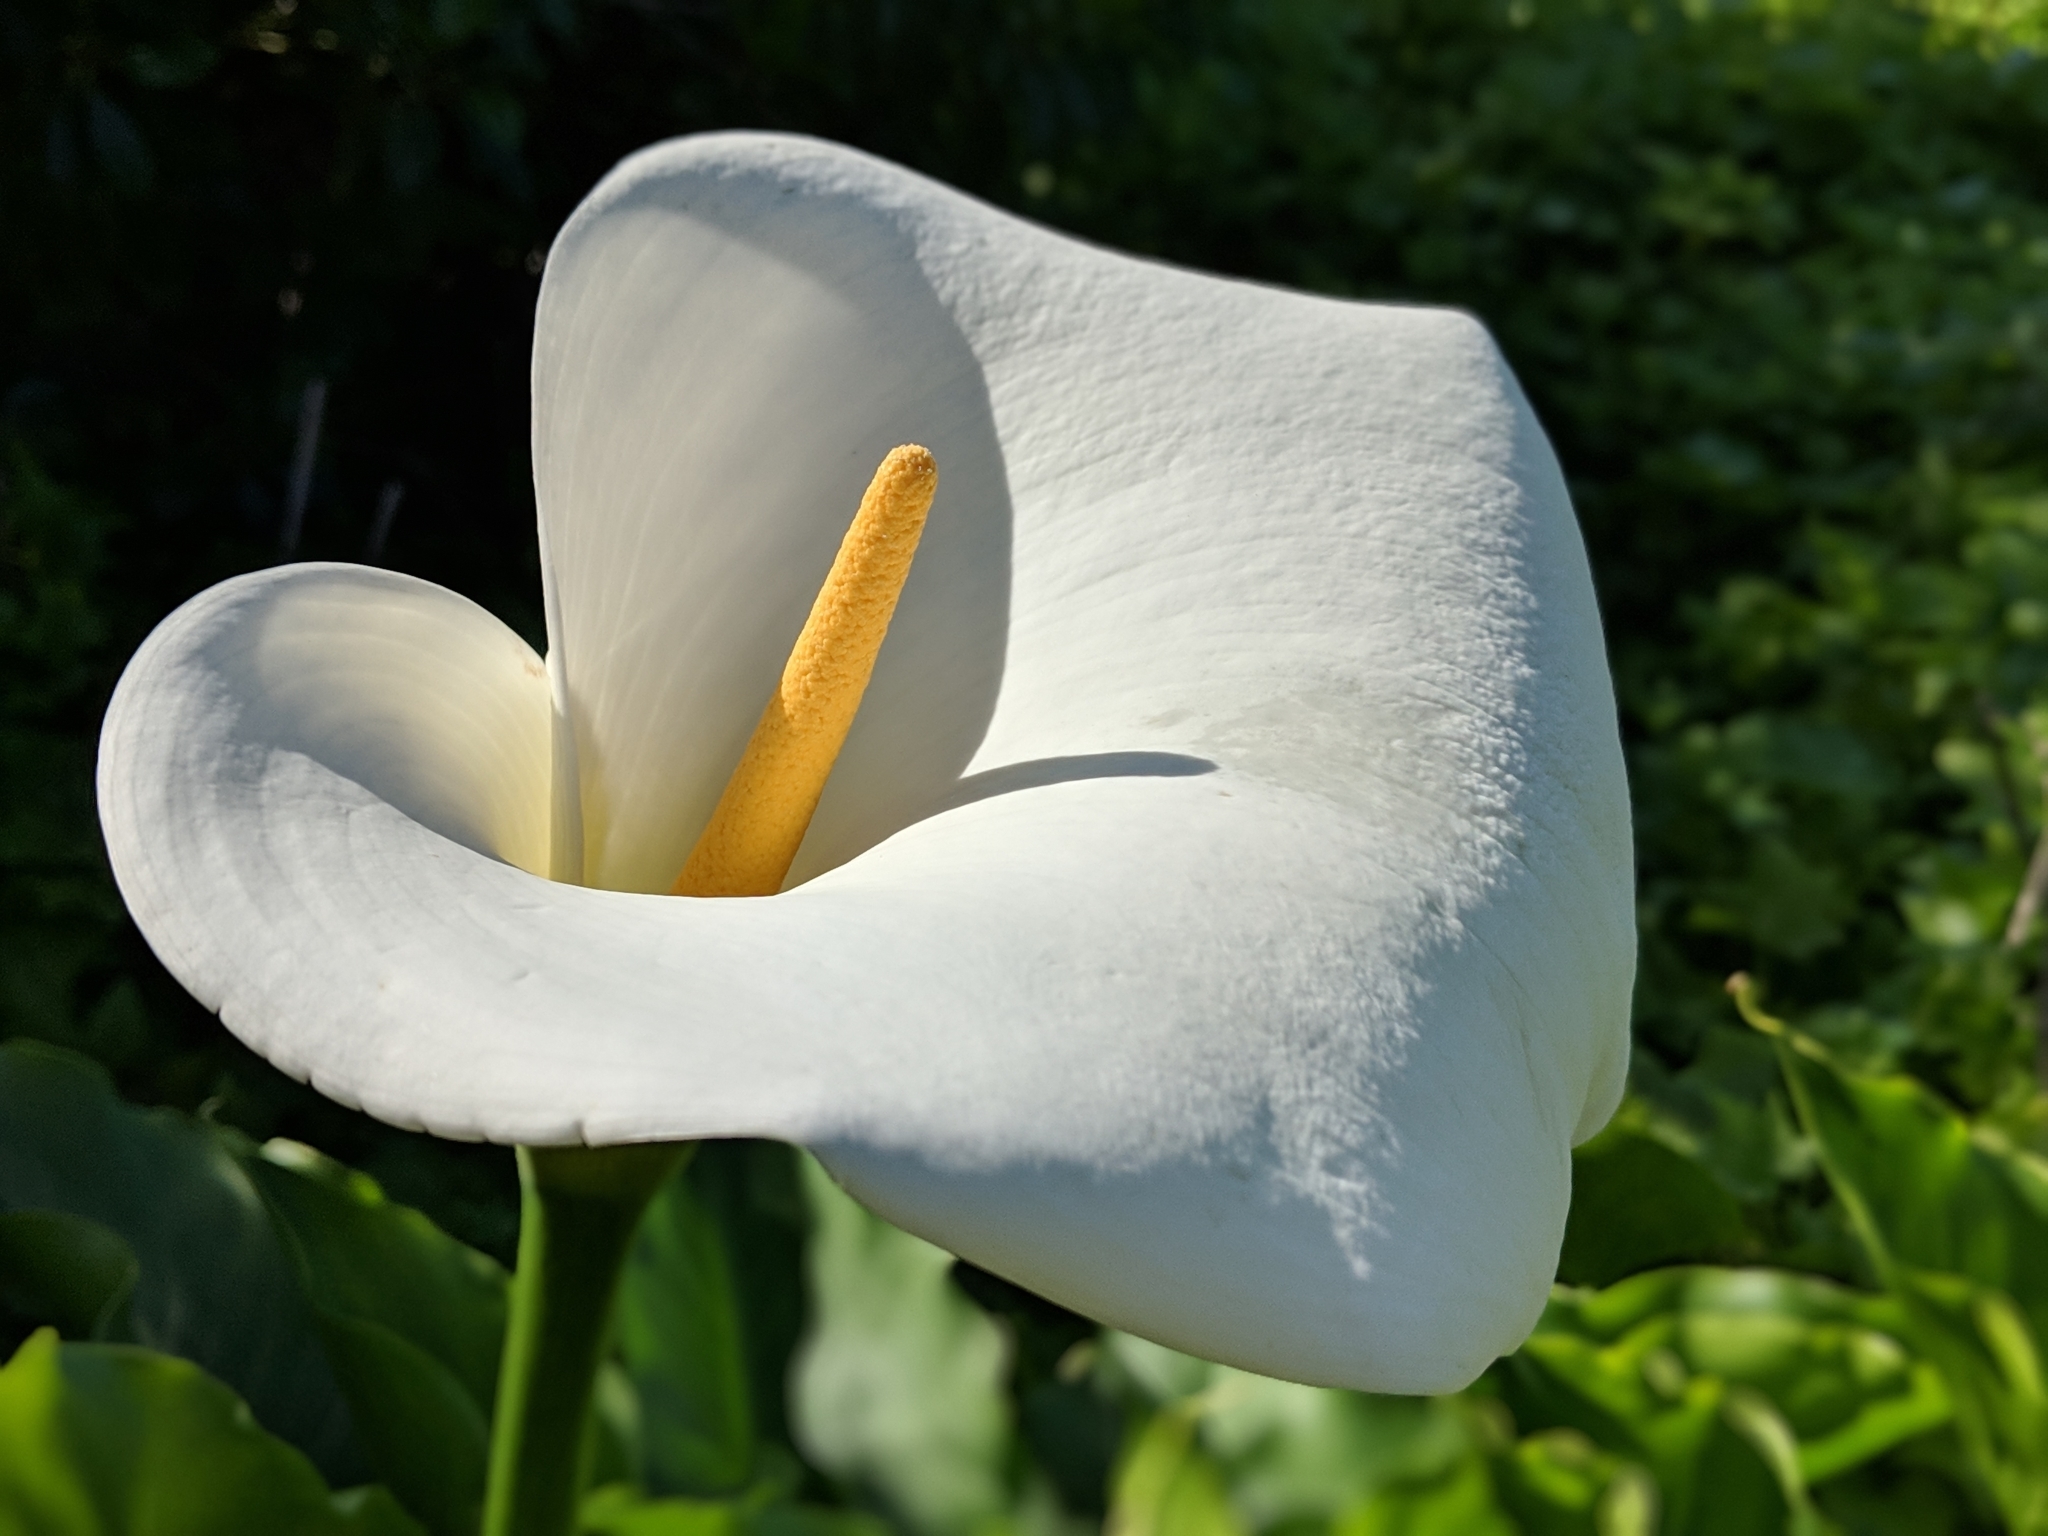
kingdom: Plantae
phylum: Tracheophyta
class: Liliopsida
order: Alismatales
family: Araceae
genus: Zantedeschia
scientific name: Zantedeschia aethiopica
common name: Altar-lily
